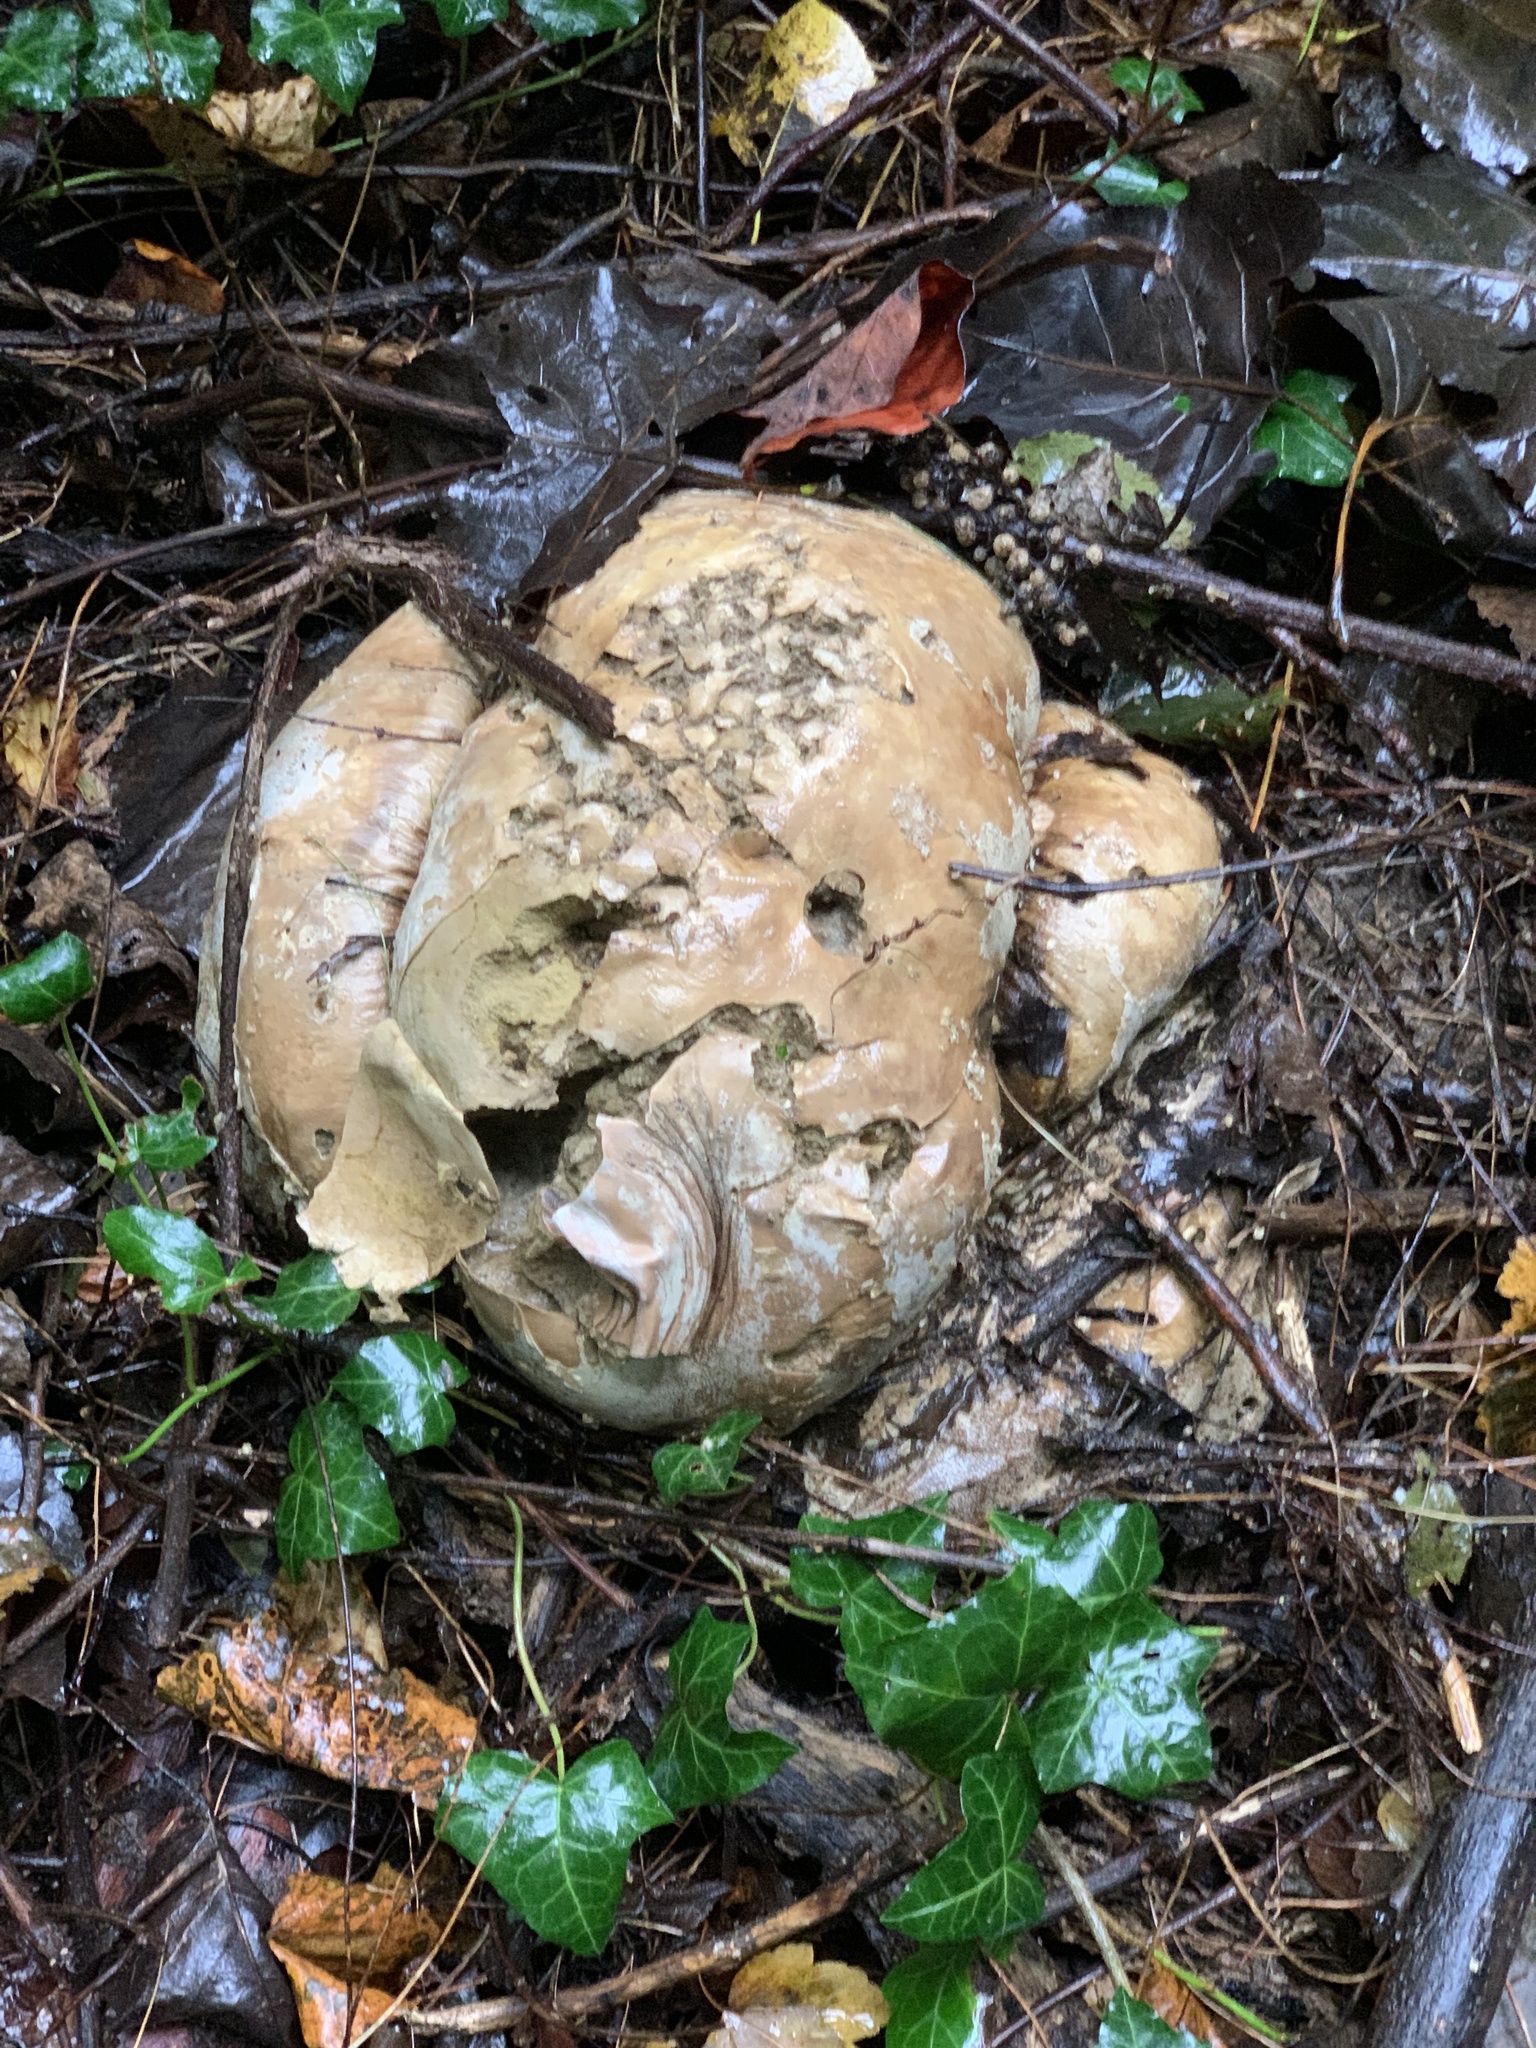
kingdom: Fungi
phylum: Basidiomycota
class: Agaricomycetes
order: Agaricales
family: Lycoperdaceae
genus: Calvatia
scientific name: Calvatia gigantea
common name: Giant puffball
